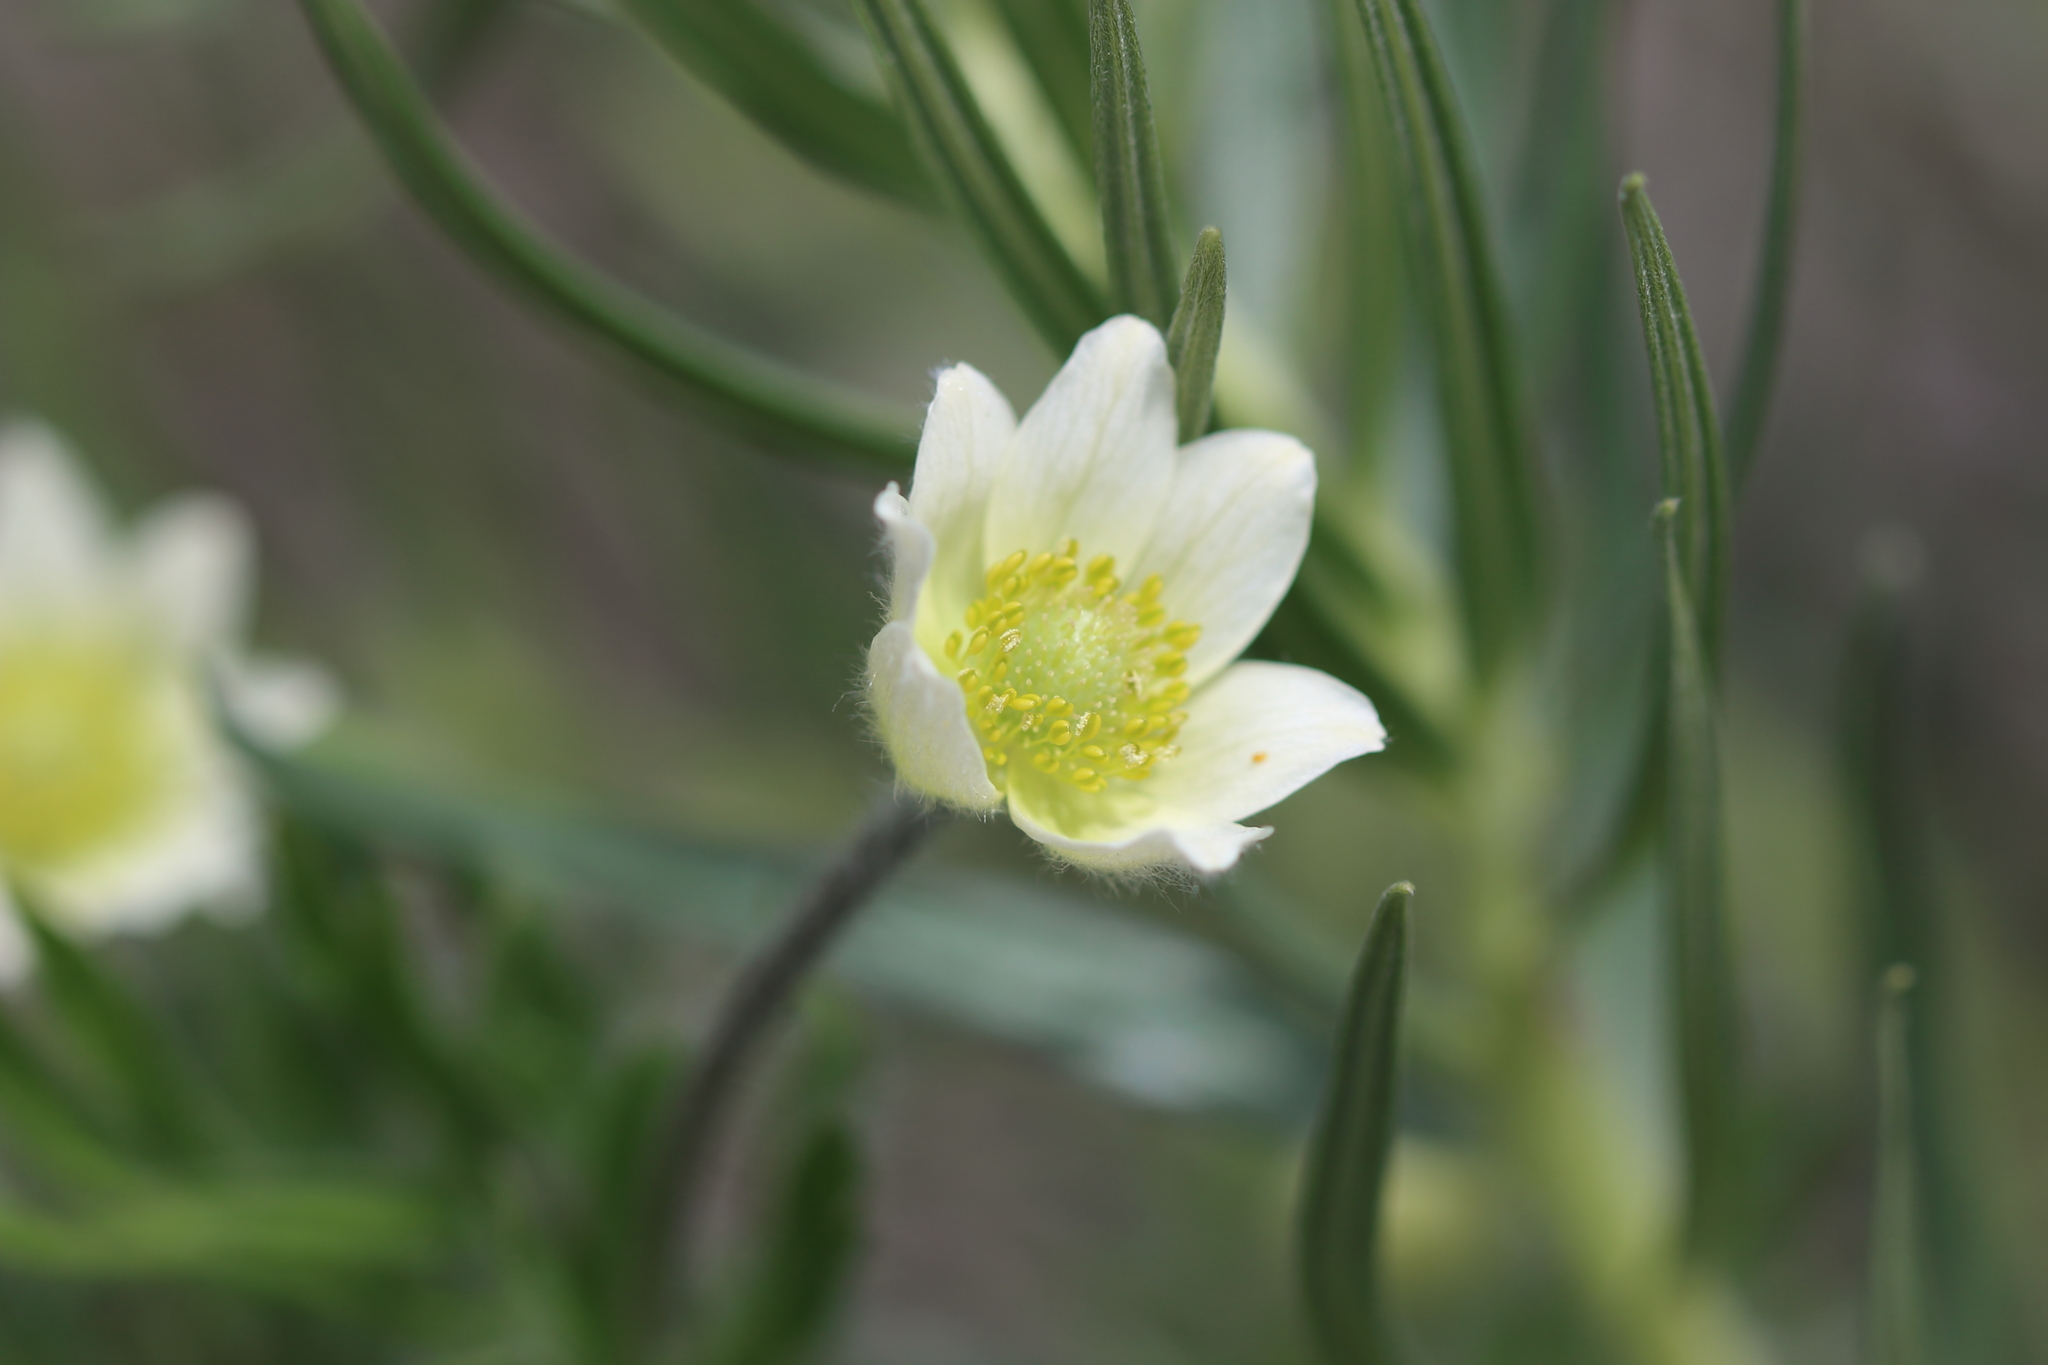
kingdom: Plantae
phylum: Tracheophyta
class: Magnoliopsida
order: Ranunculales
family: Ranunculaceae
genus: Anemone
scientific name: Anemone multifida
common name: Bird's-foot anemone
